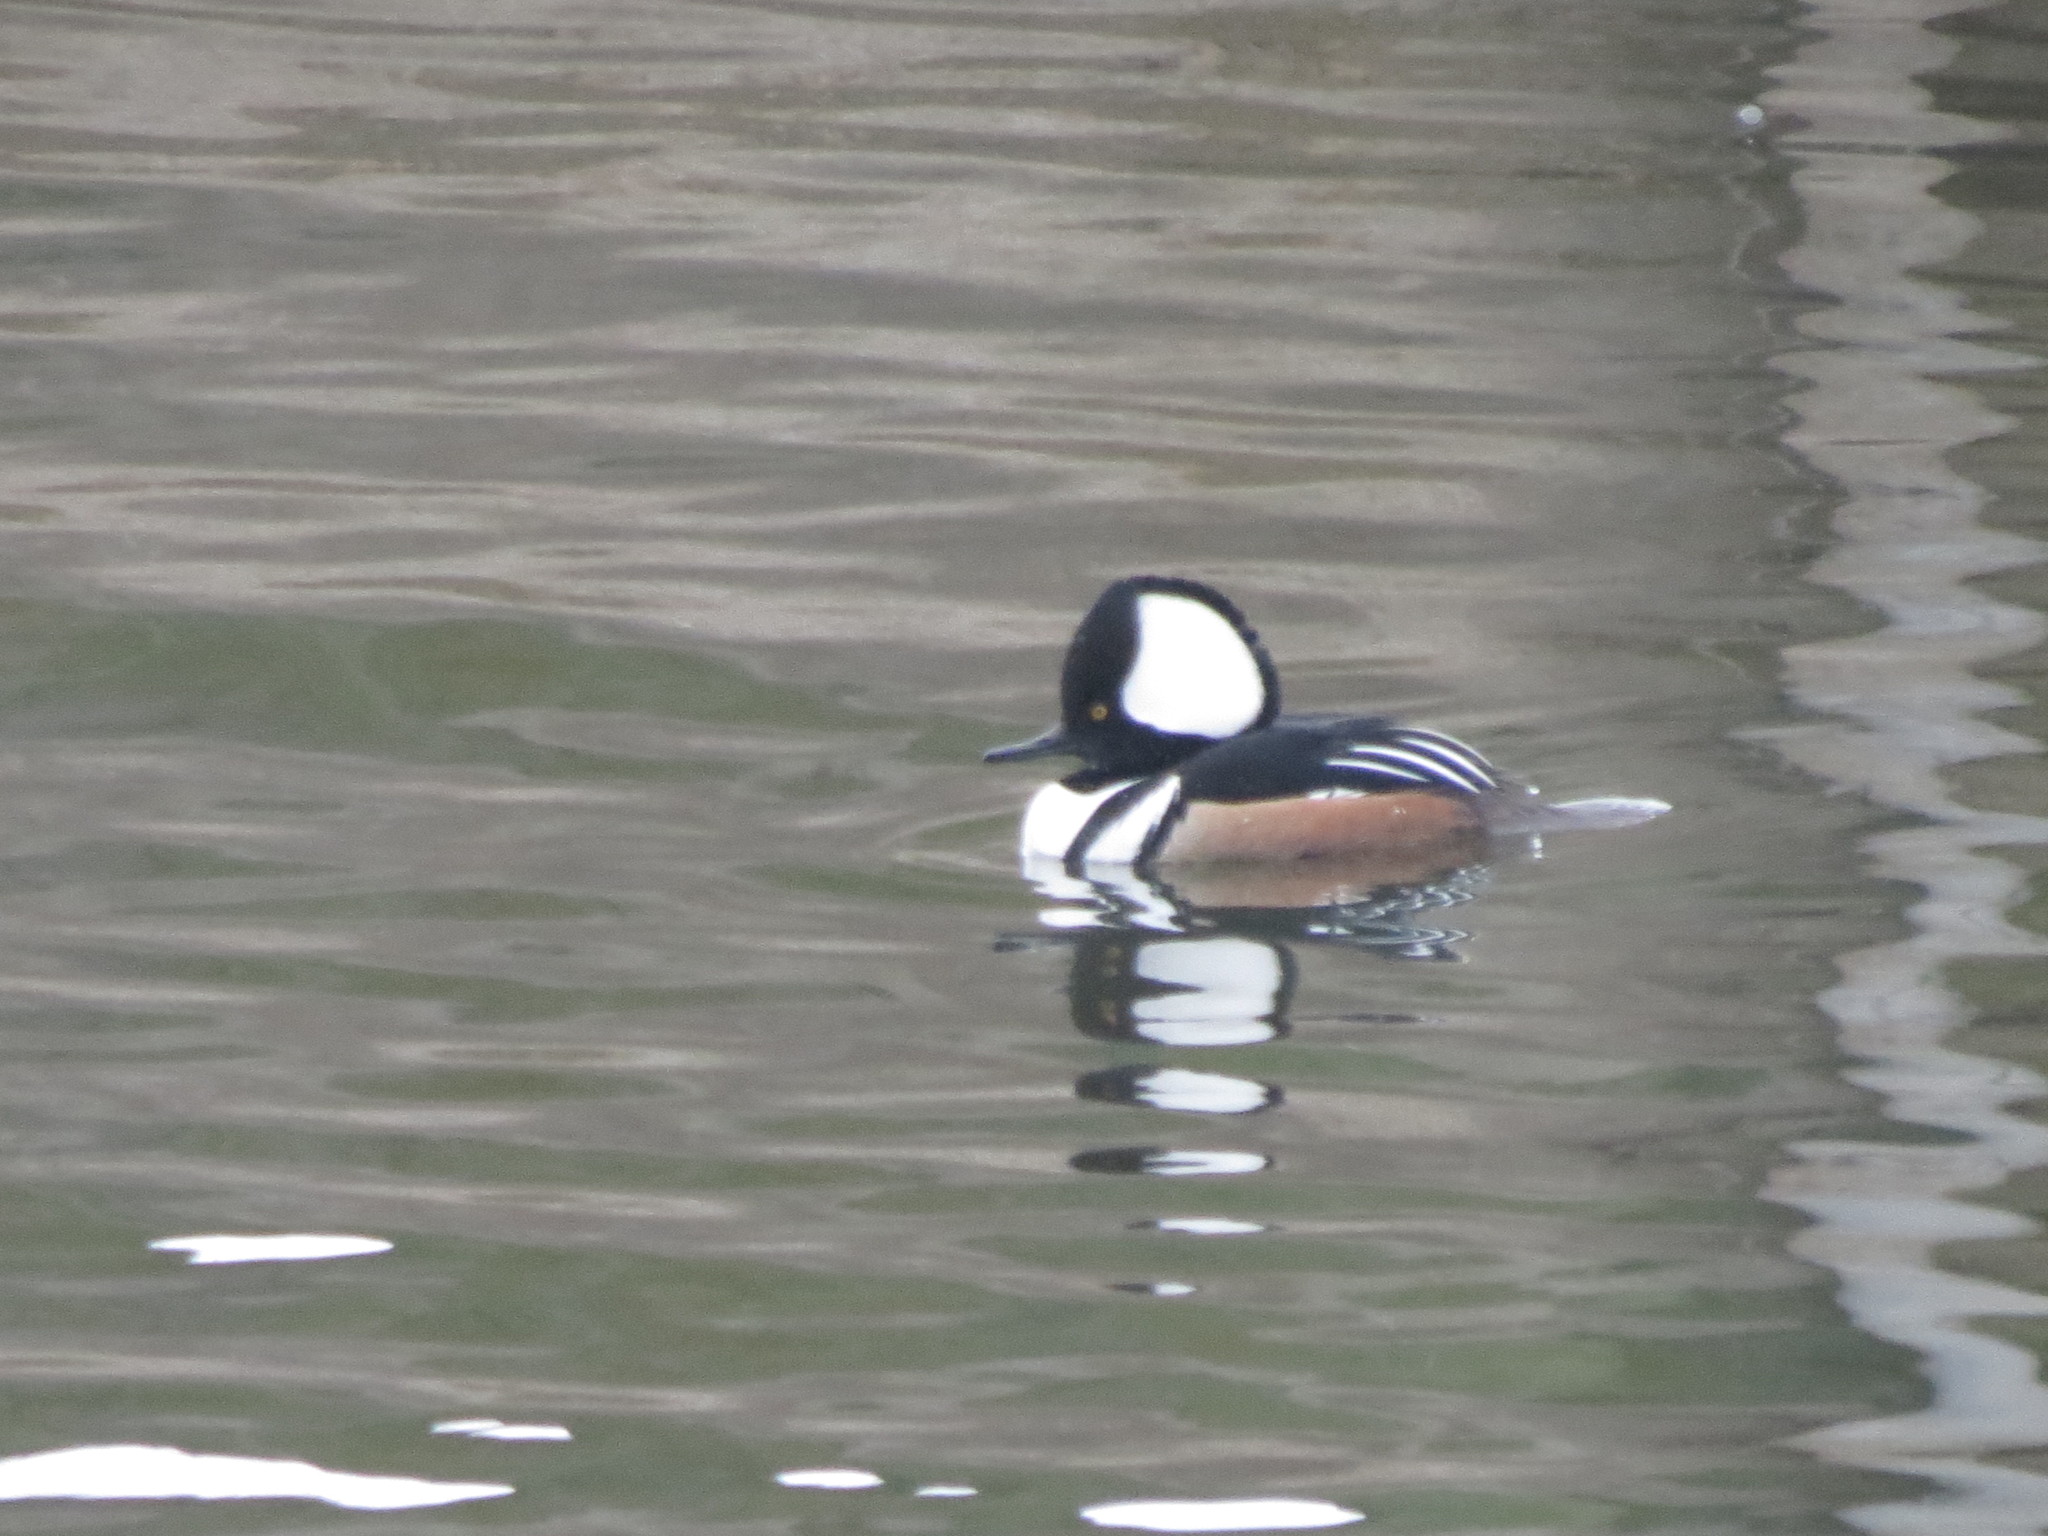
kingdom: Animalia
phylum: Chordata
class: Aves
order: Anseriformes
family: Anatidae
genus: Lophodytes
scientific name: Lophodytes cucullatus
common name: Hooded merganser
